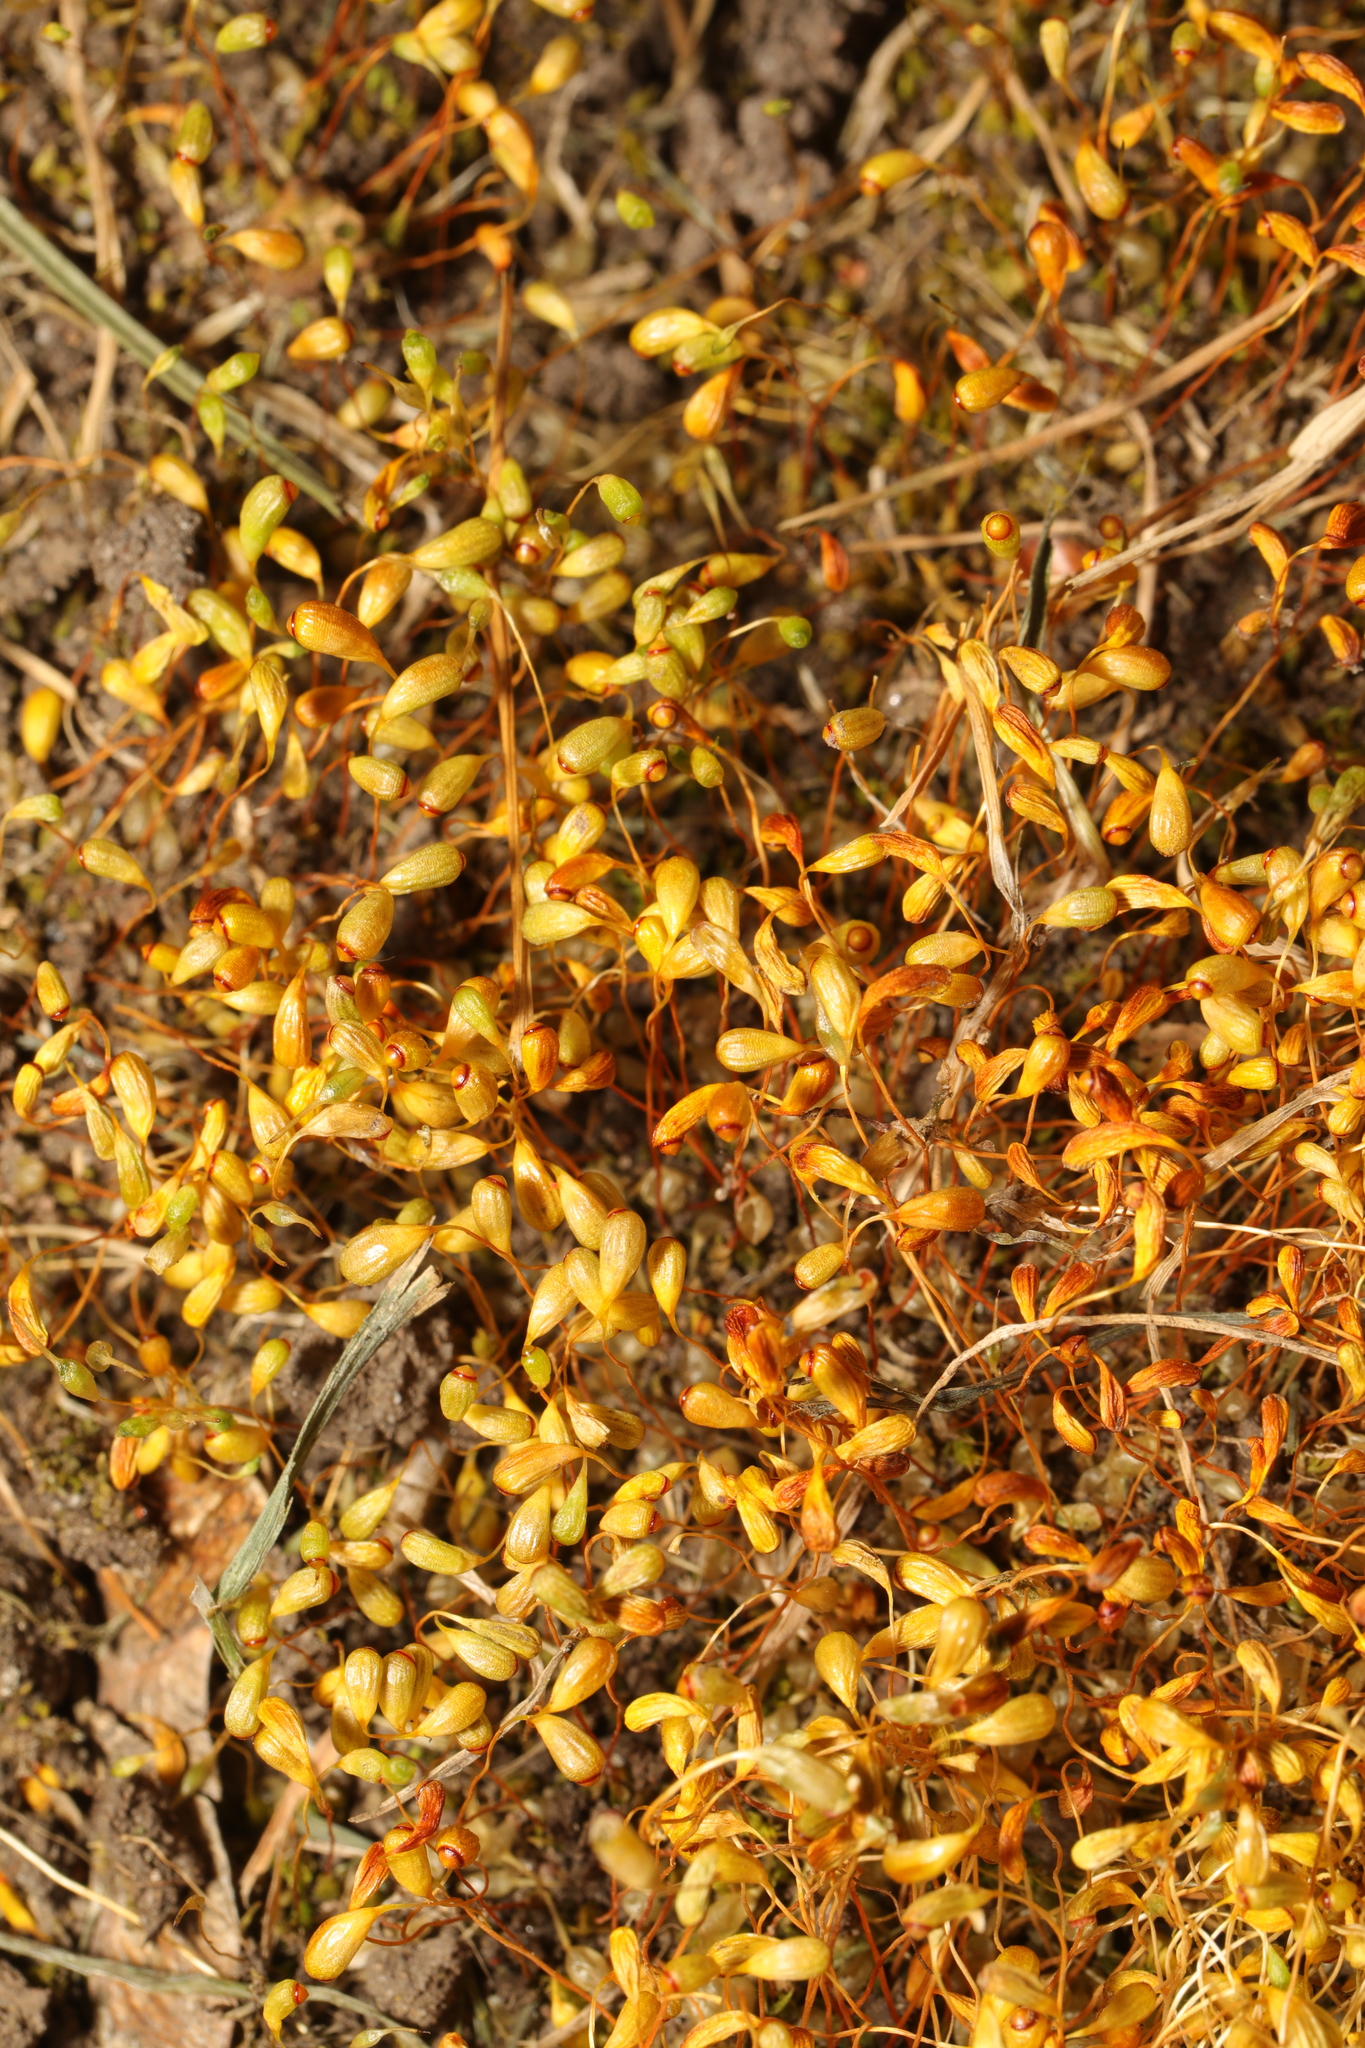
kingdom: Plantae
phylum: Bryophyta
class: Bryopsida
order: Funariales
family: Funariaceae
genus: Funaria
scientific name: Funaria hygrometrica
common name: Common cord moss
